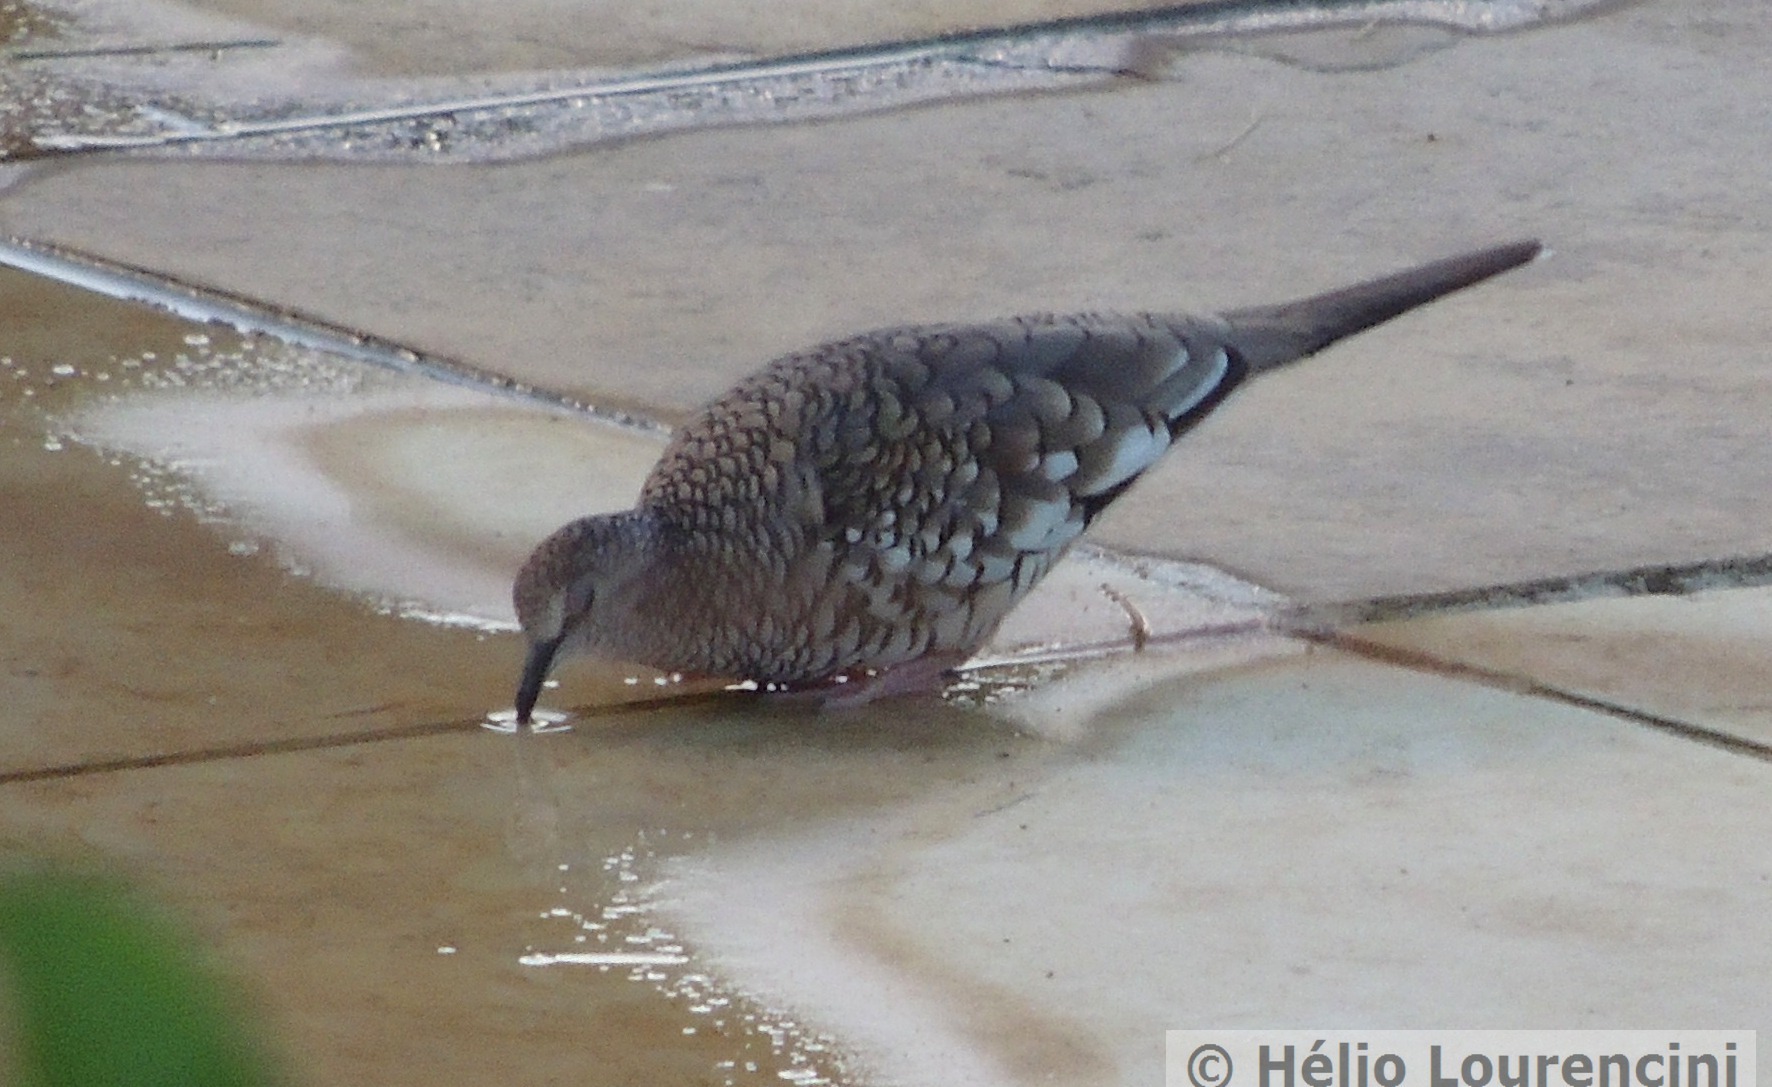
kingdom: Animalia
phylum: Chordata
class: Aves
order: Columbiformes
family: Columbidae
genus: Columbina
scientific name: Columbina squammata
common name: Scaled dove
